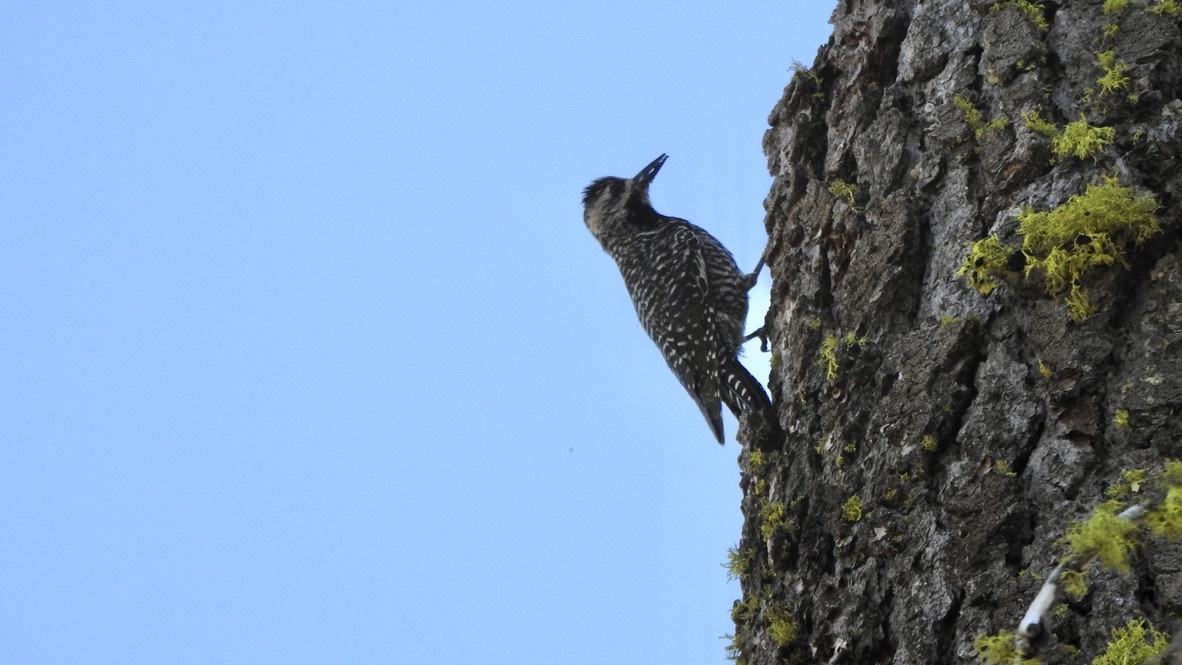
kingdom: Animalia
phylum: Chordata
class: Aves
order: Piciformes
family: Picidae
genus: Sphyrapicus
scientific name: Sphyrapicus thyroideus
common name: Williamson's sapsucker
